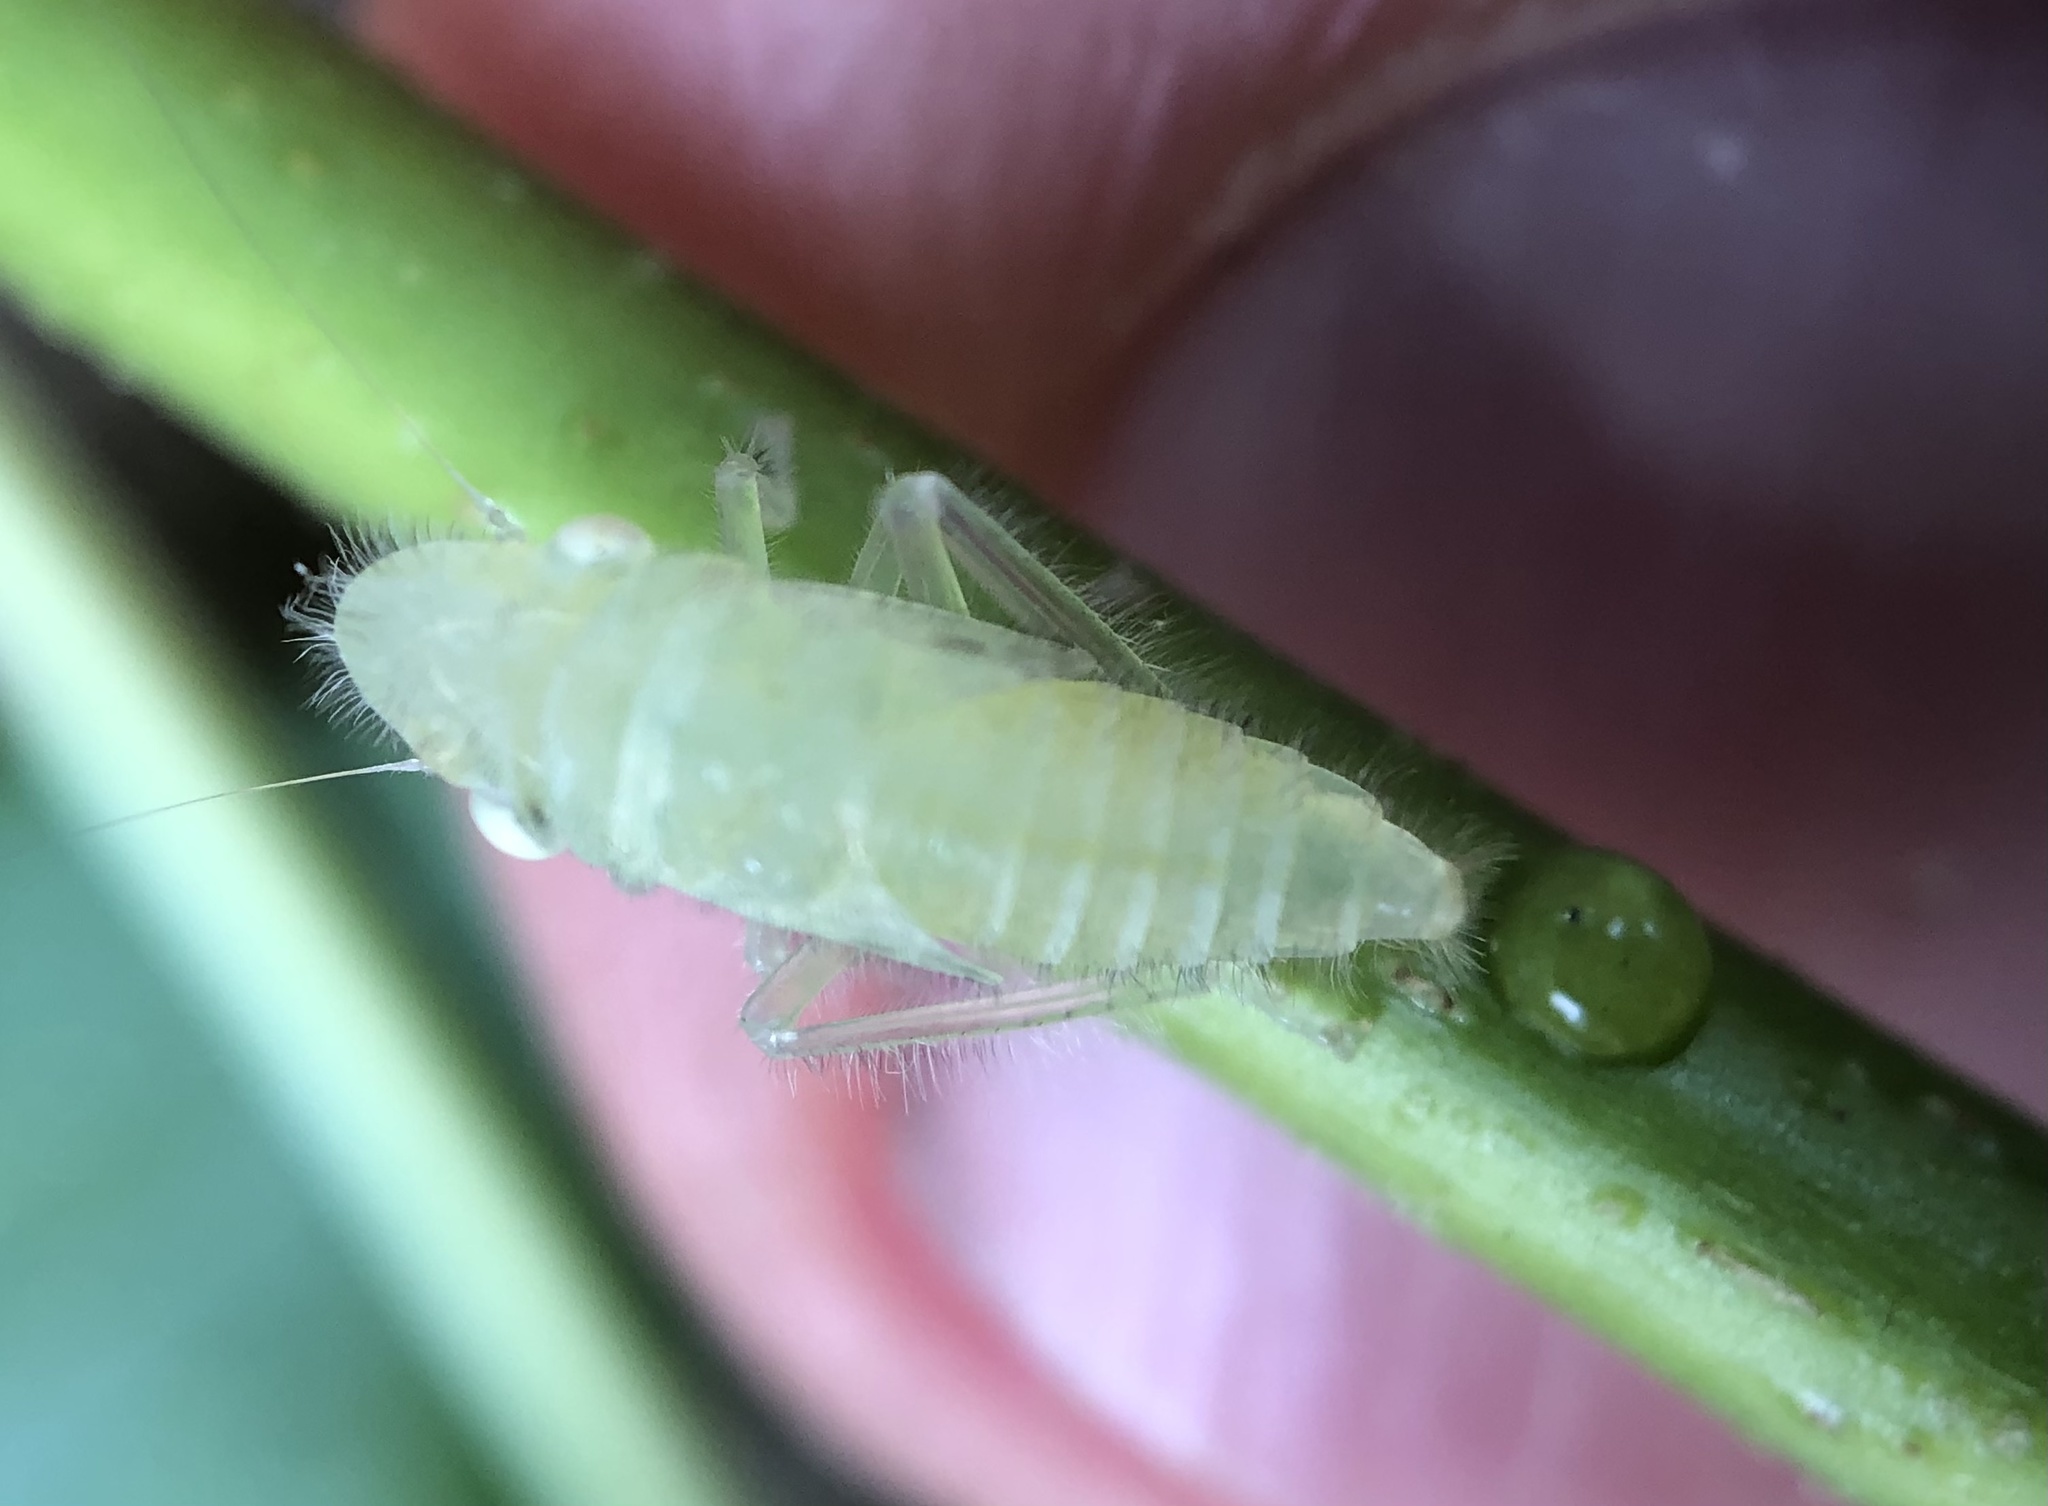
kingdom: Animalia
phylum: Arthropoda
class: Insecta
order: Hemiptera
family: Cicadellidae
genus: Paraulacizes
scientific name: Paraulacizes irrorata
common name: Speckled sharpshooter
